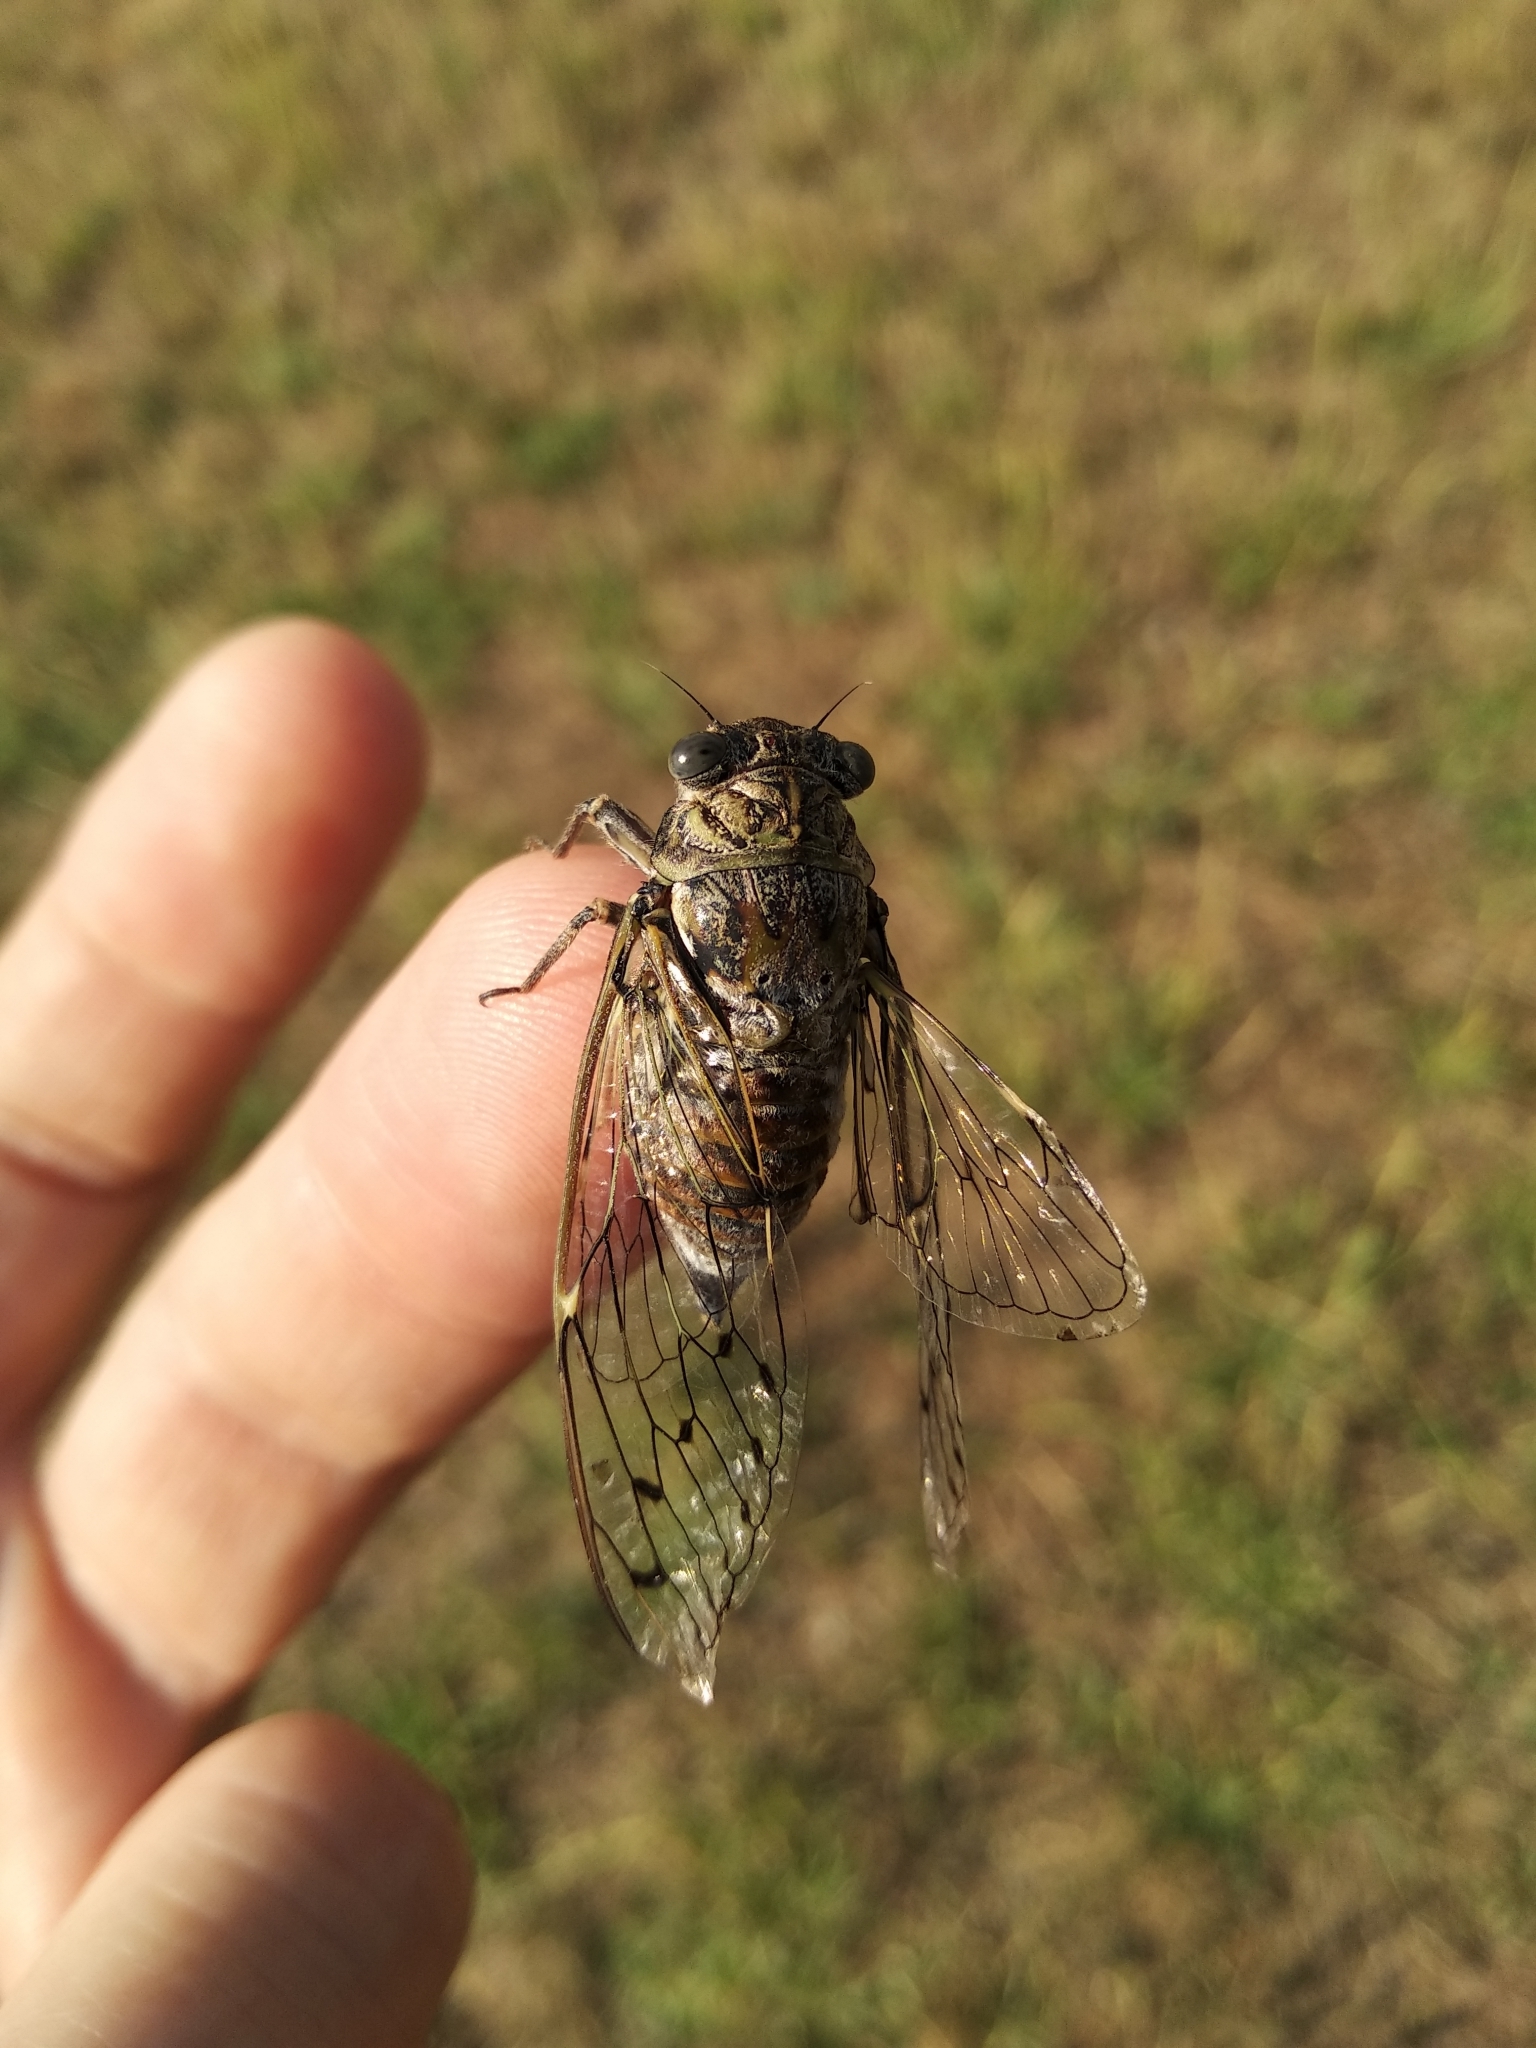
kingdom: Animalia
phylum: Arthropoda
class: Insecta
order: Hemiptera
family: Cicadidae
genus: Cicada
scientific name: Cicada orni
